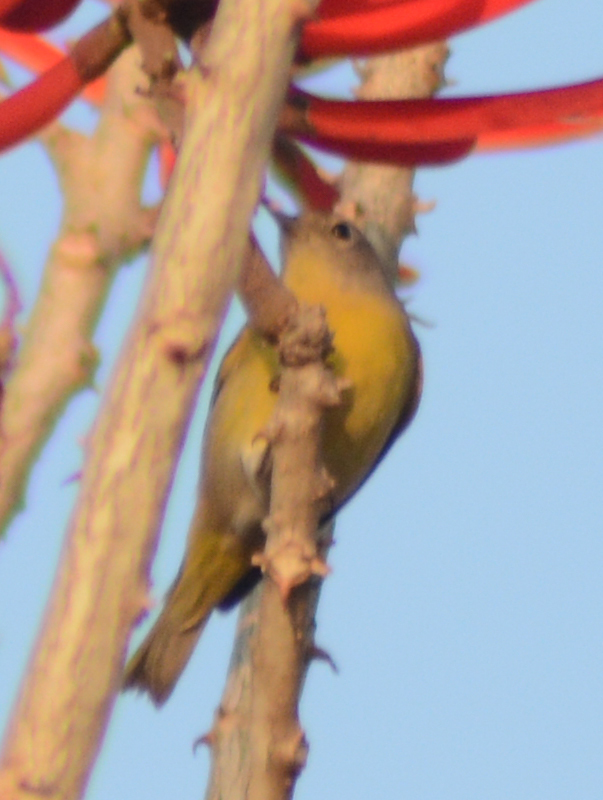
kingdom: Animalia
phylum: Chordata
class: Aves
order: Passeriformes
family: Parulidae
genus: Leiothlypis
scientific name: Leiothlypis ruficapilla
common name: Nashville warbler
